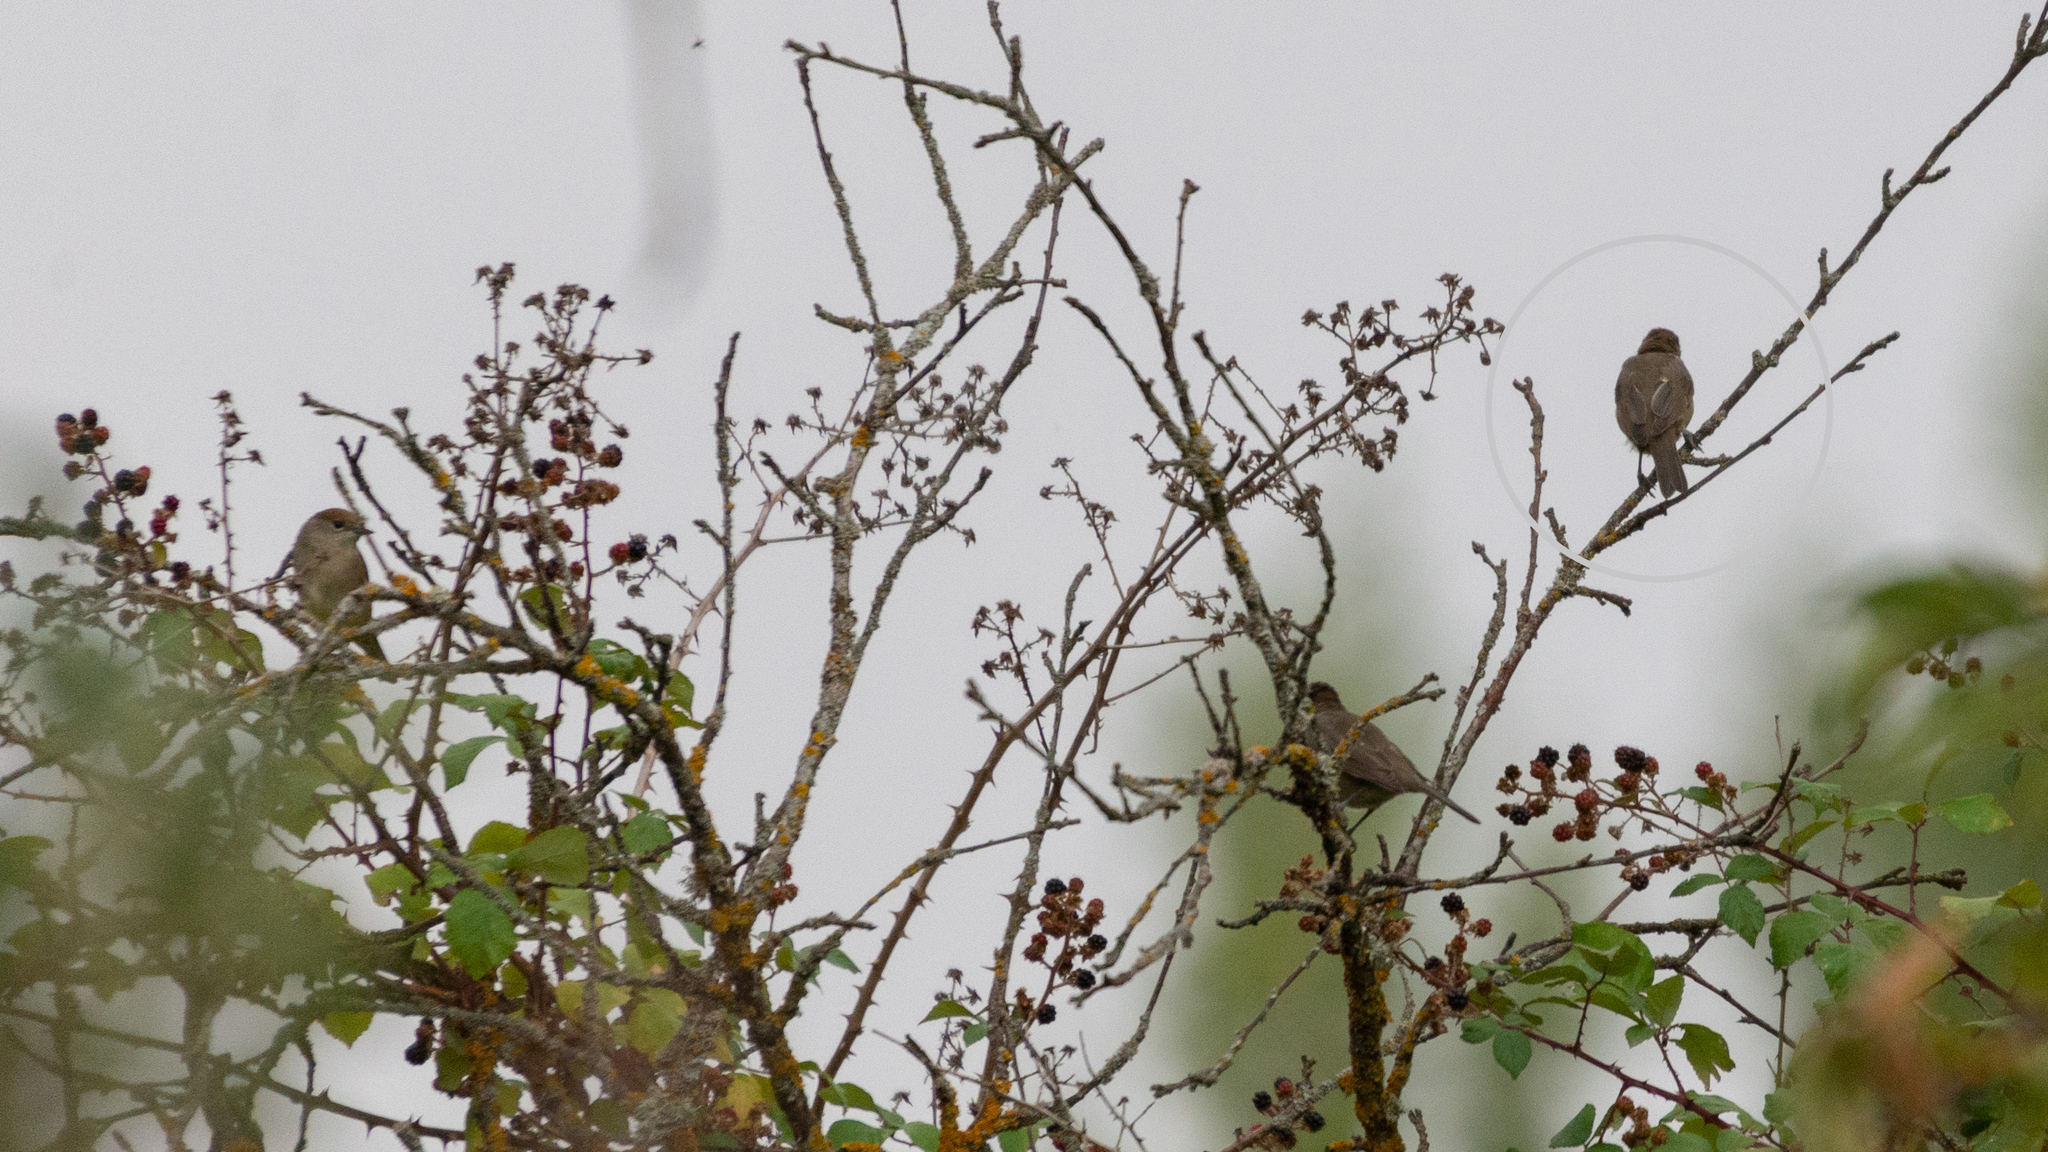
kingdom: Animalia
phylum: Chordata
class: Aves
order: Passeriformes
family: Sylviidae
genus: Sylvia
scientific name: Sylvia atricapilla
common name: Eurasian blackcap
